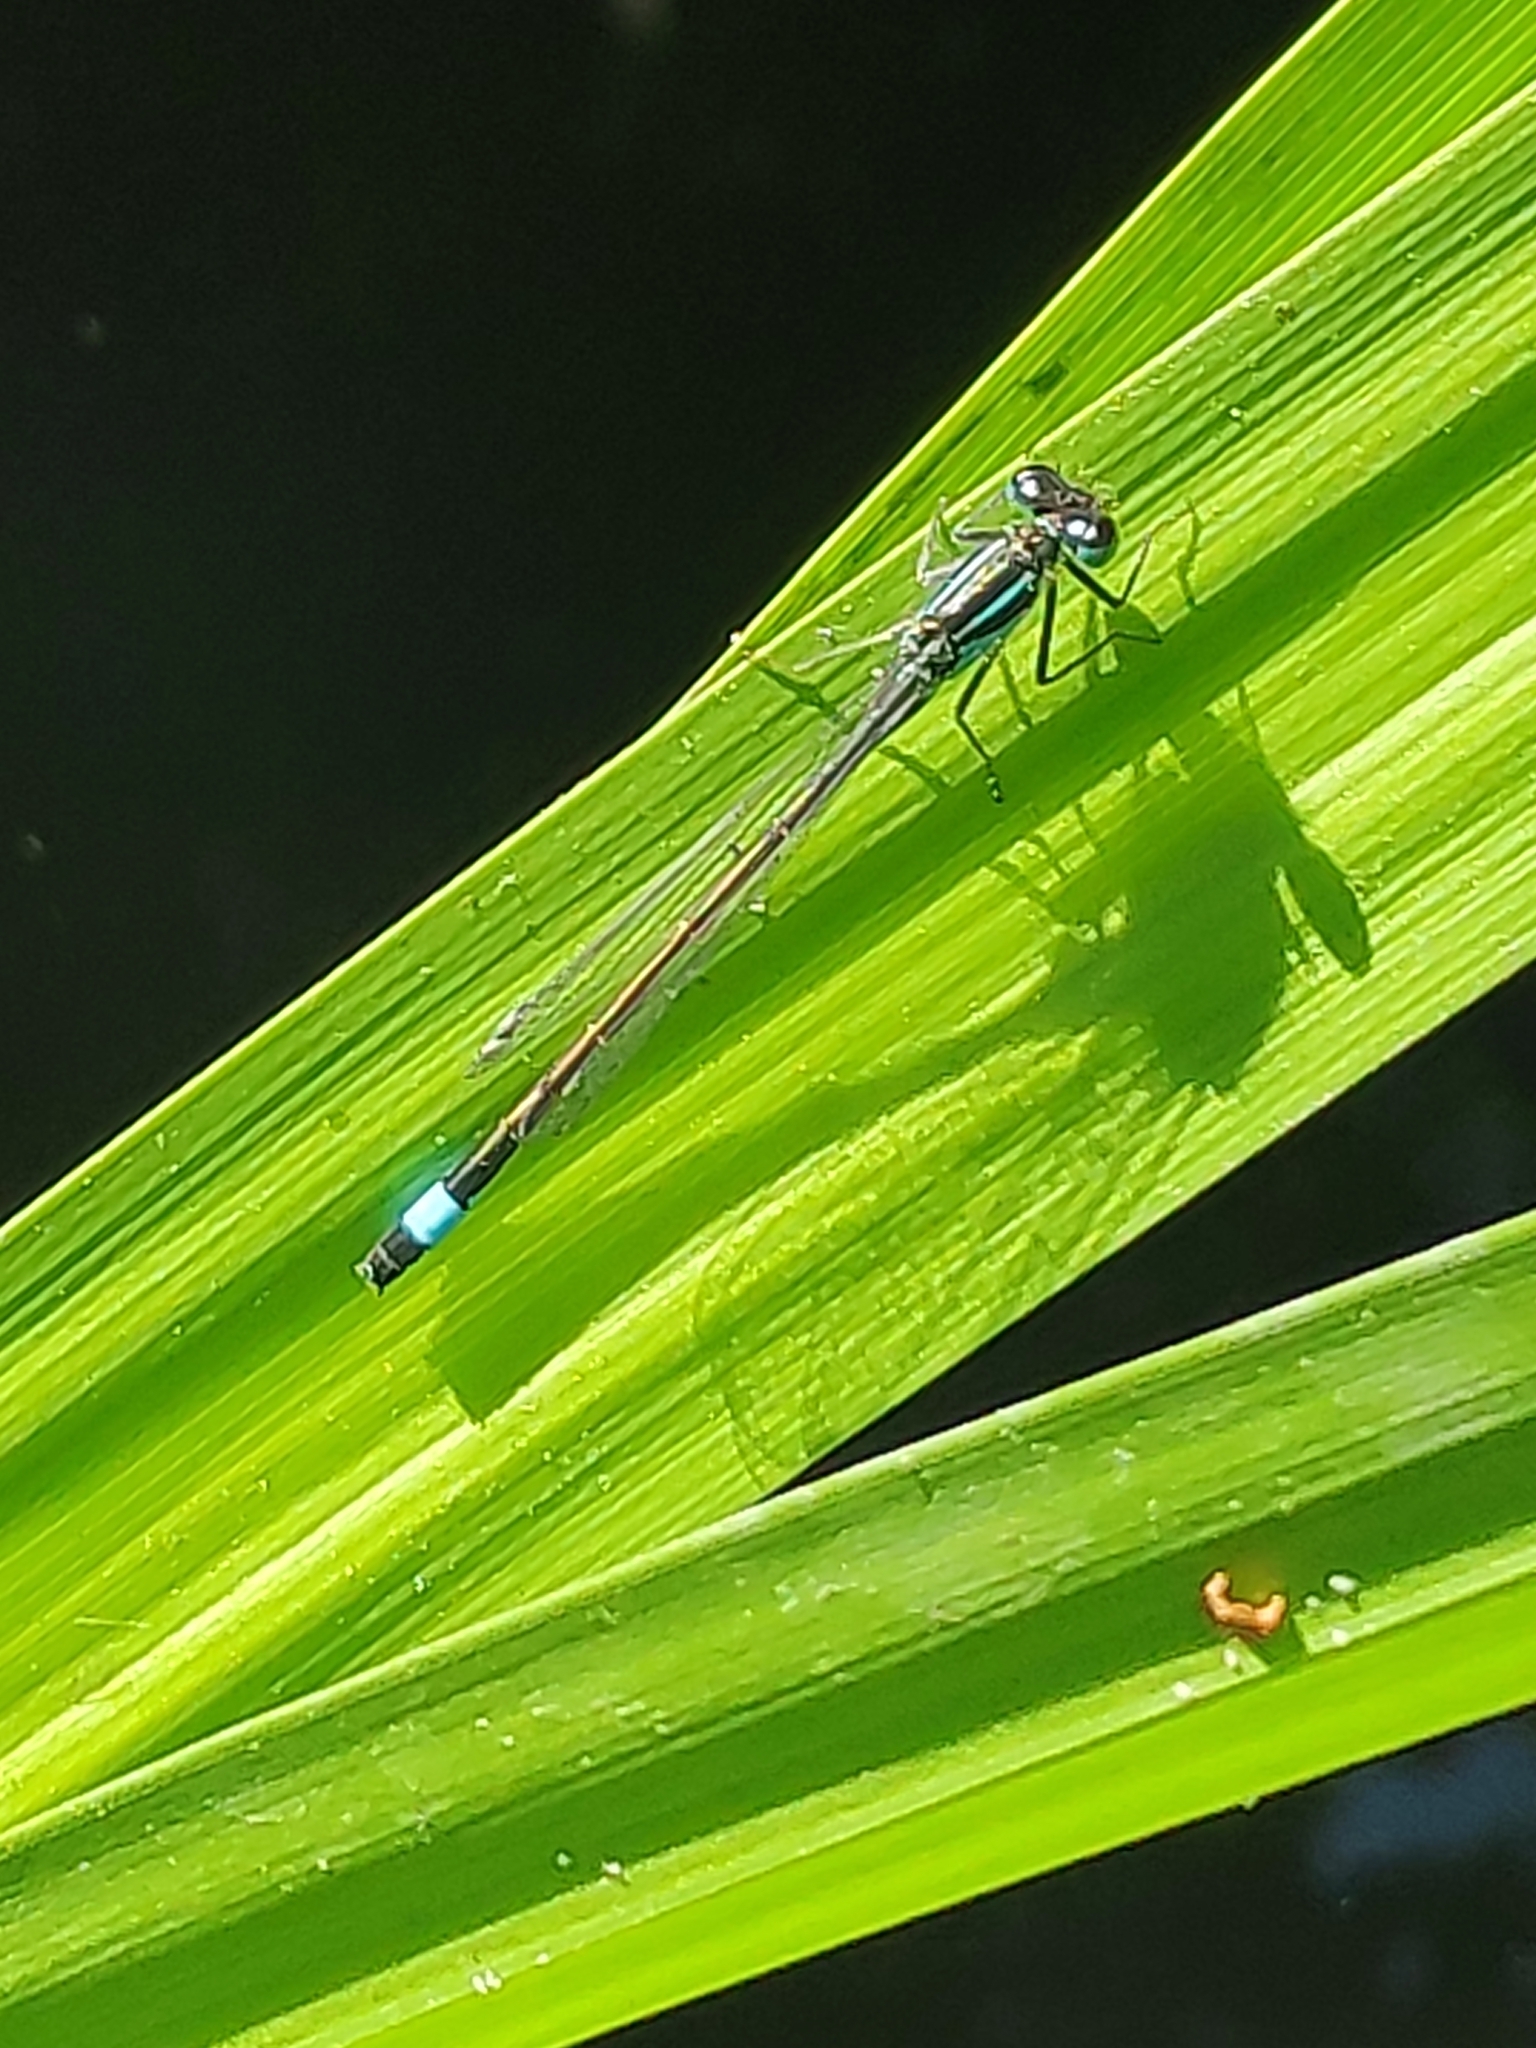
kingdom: Animalia
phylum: Arthropoda
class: Insecta
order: Odonata
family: Coenagrionidae
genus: Ischnura
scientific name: Ischnura elegans
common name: Blue-tailed damselfly
